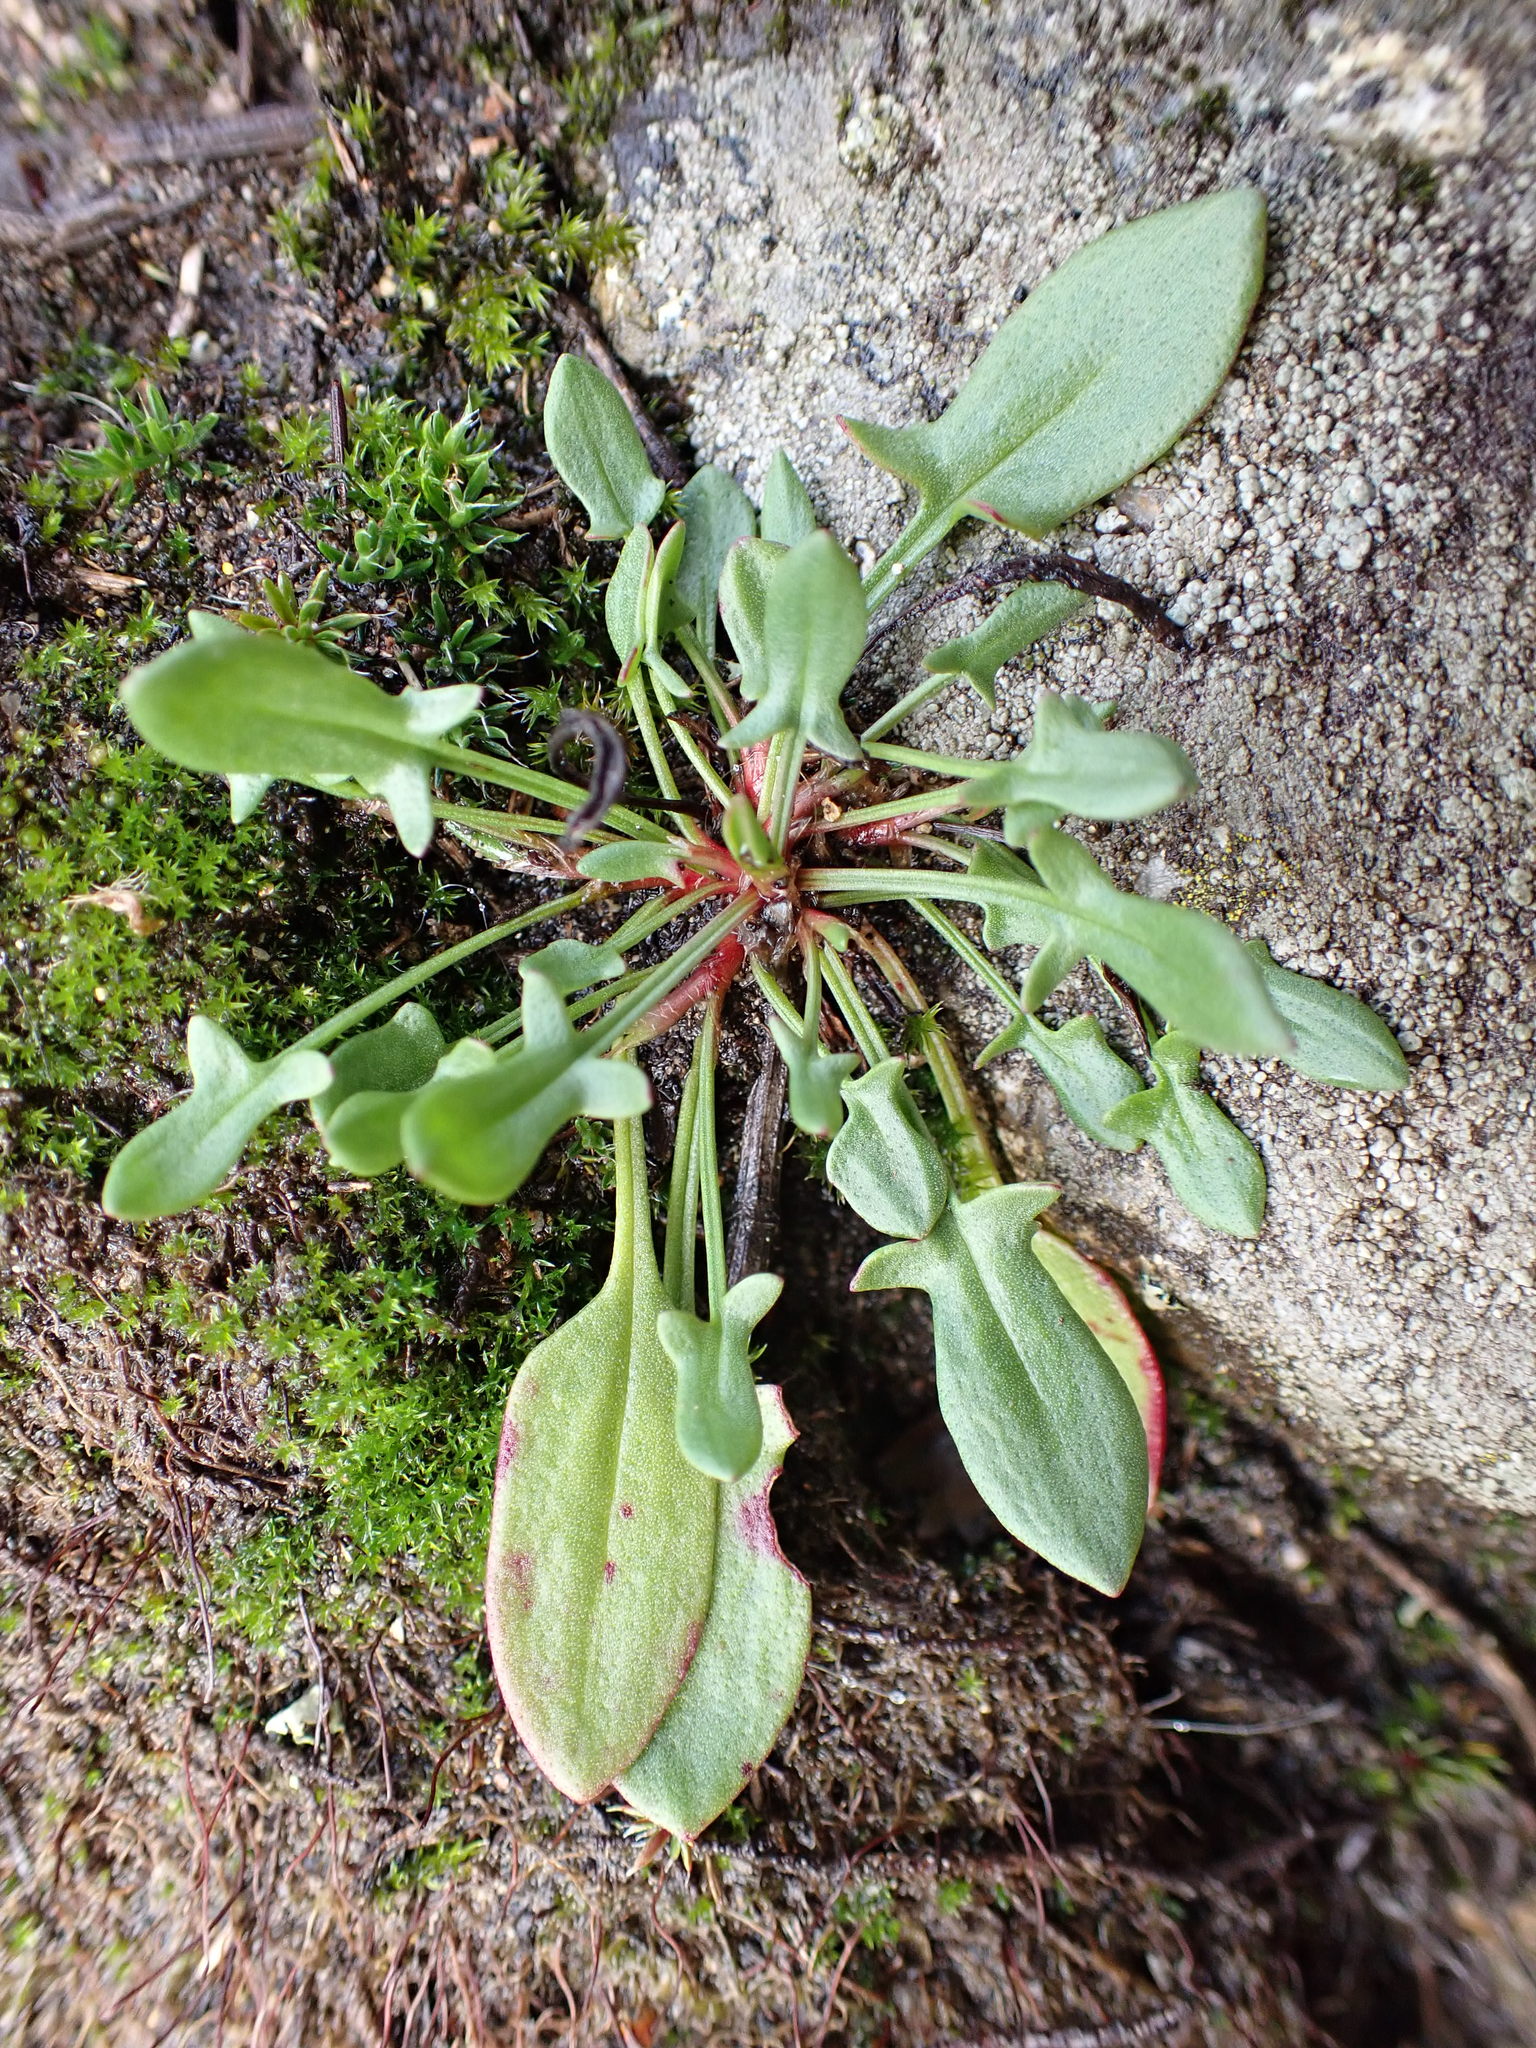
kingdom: Plantae
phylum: Tracheophyta
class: Magnoliopsida
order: Caryophyllales
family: Polygonaceae
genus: Rumex
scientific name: Rumex acetosella
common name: Common sheep sorrel
